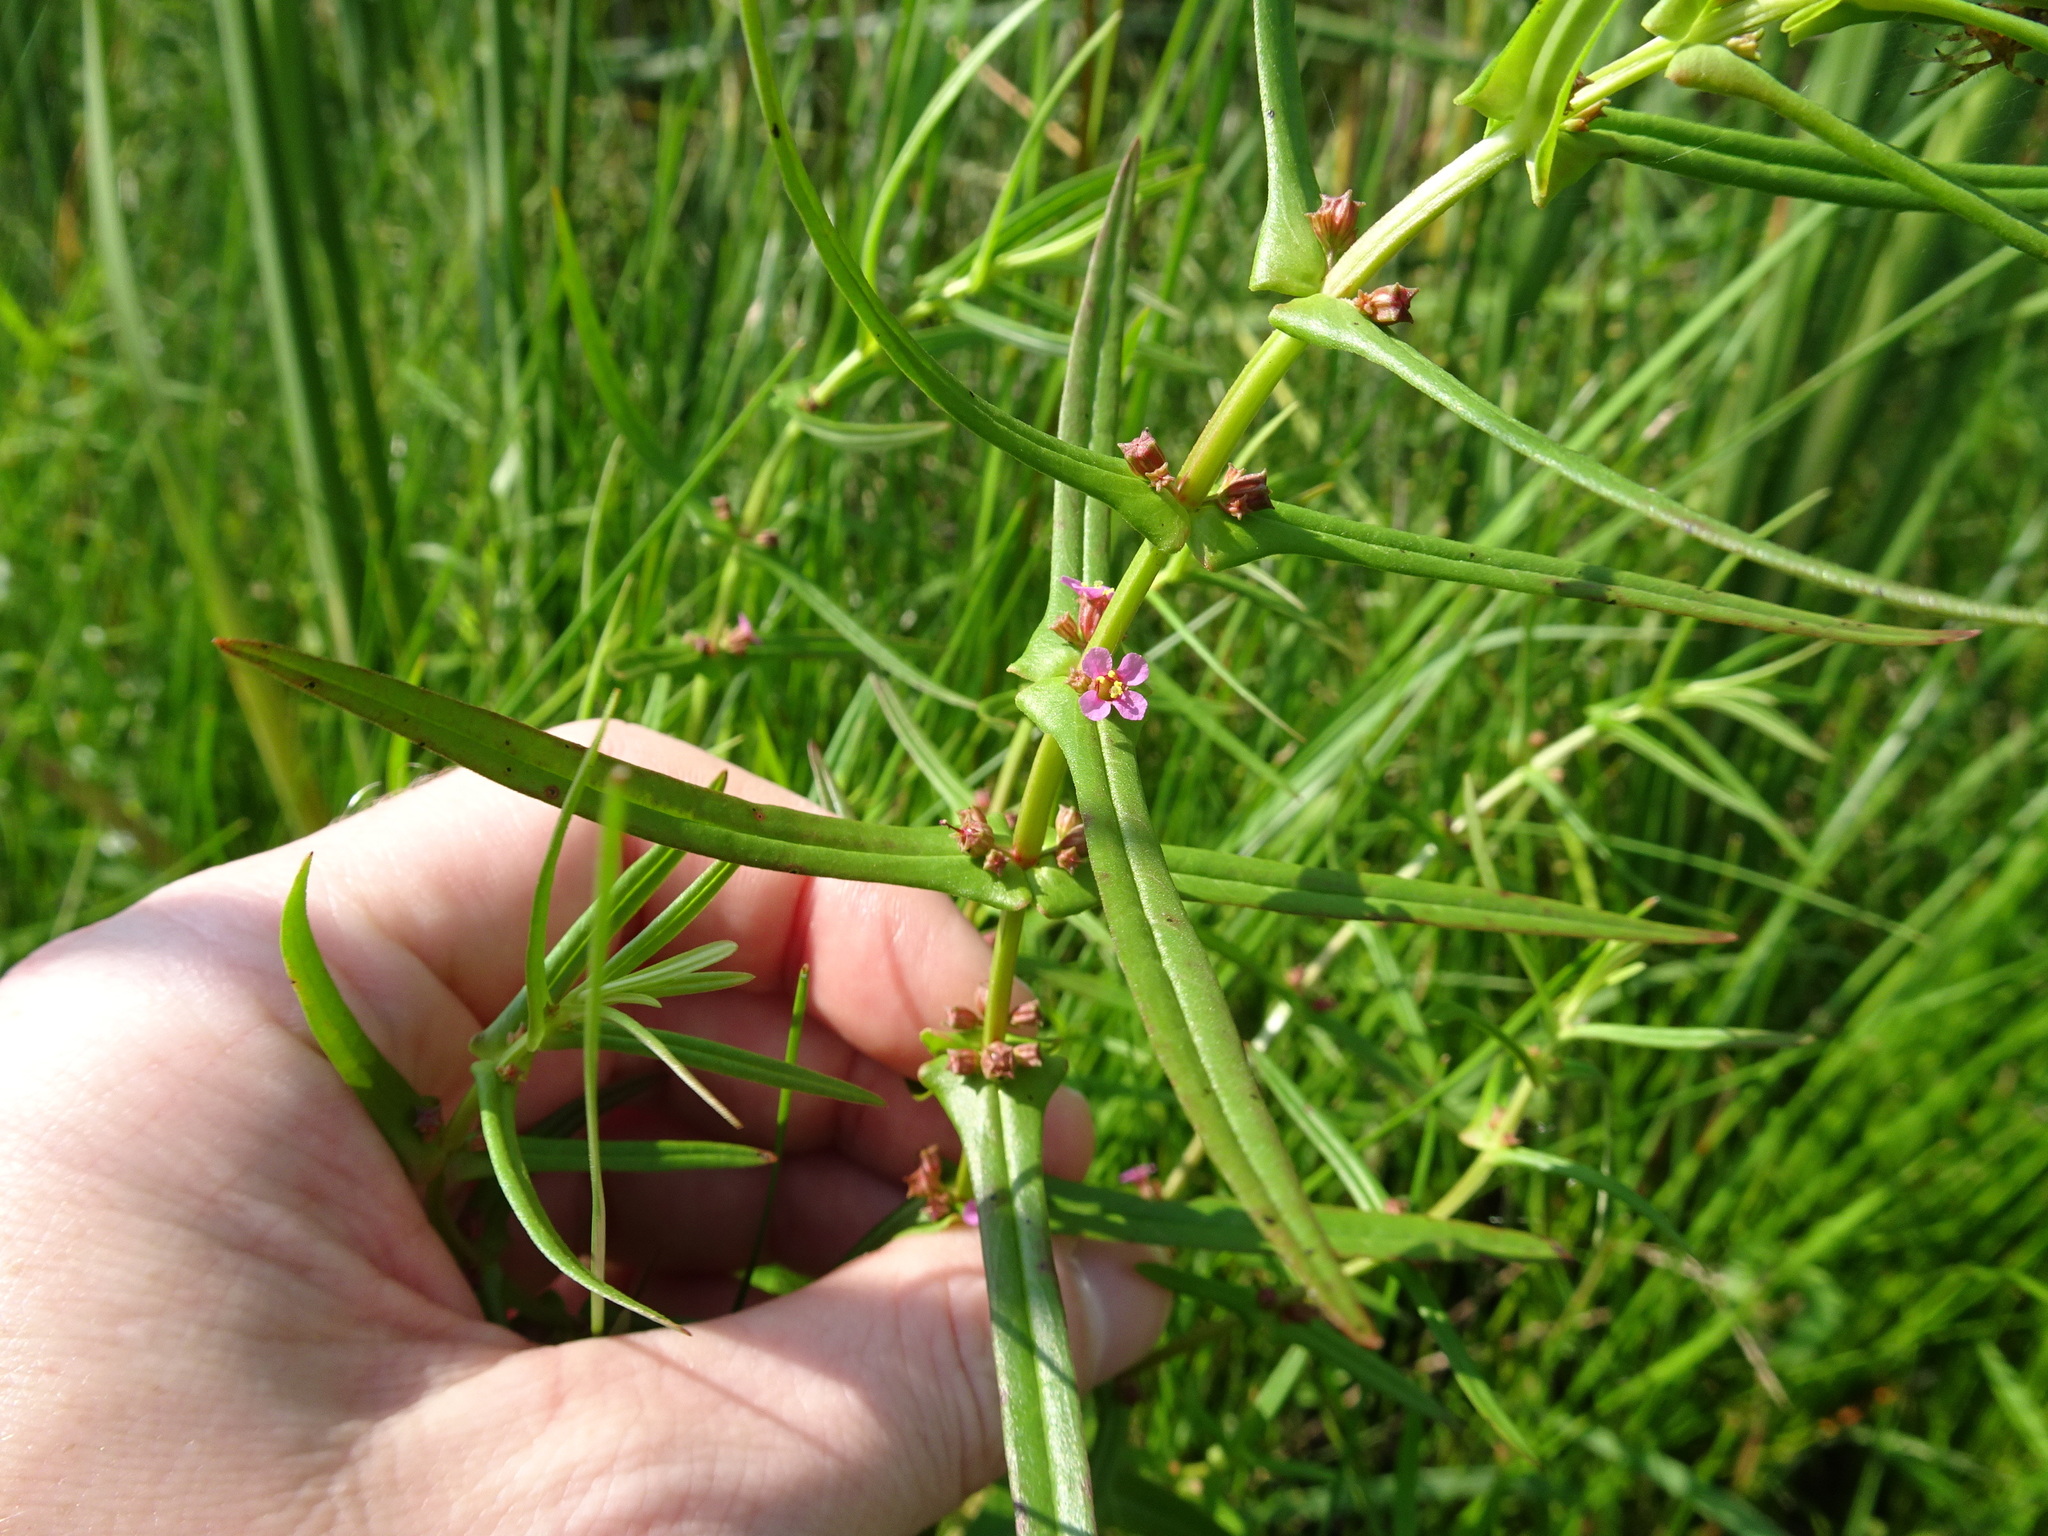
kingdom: Plantae
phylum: Tracheophyta
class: Magnoliopsida
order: Myrtales
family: Lythraceae
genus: Ammannia
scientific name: Ammannia coccinea
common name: Valley redstem
